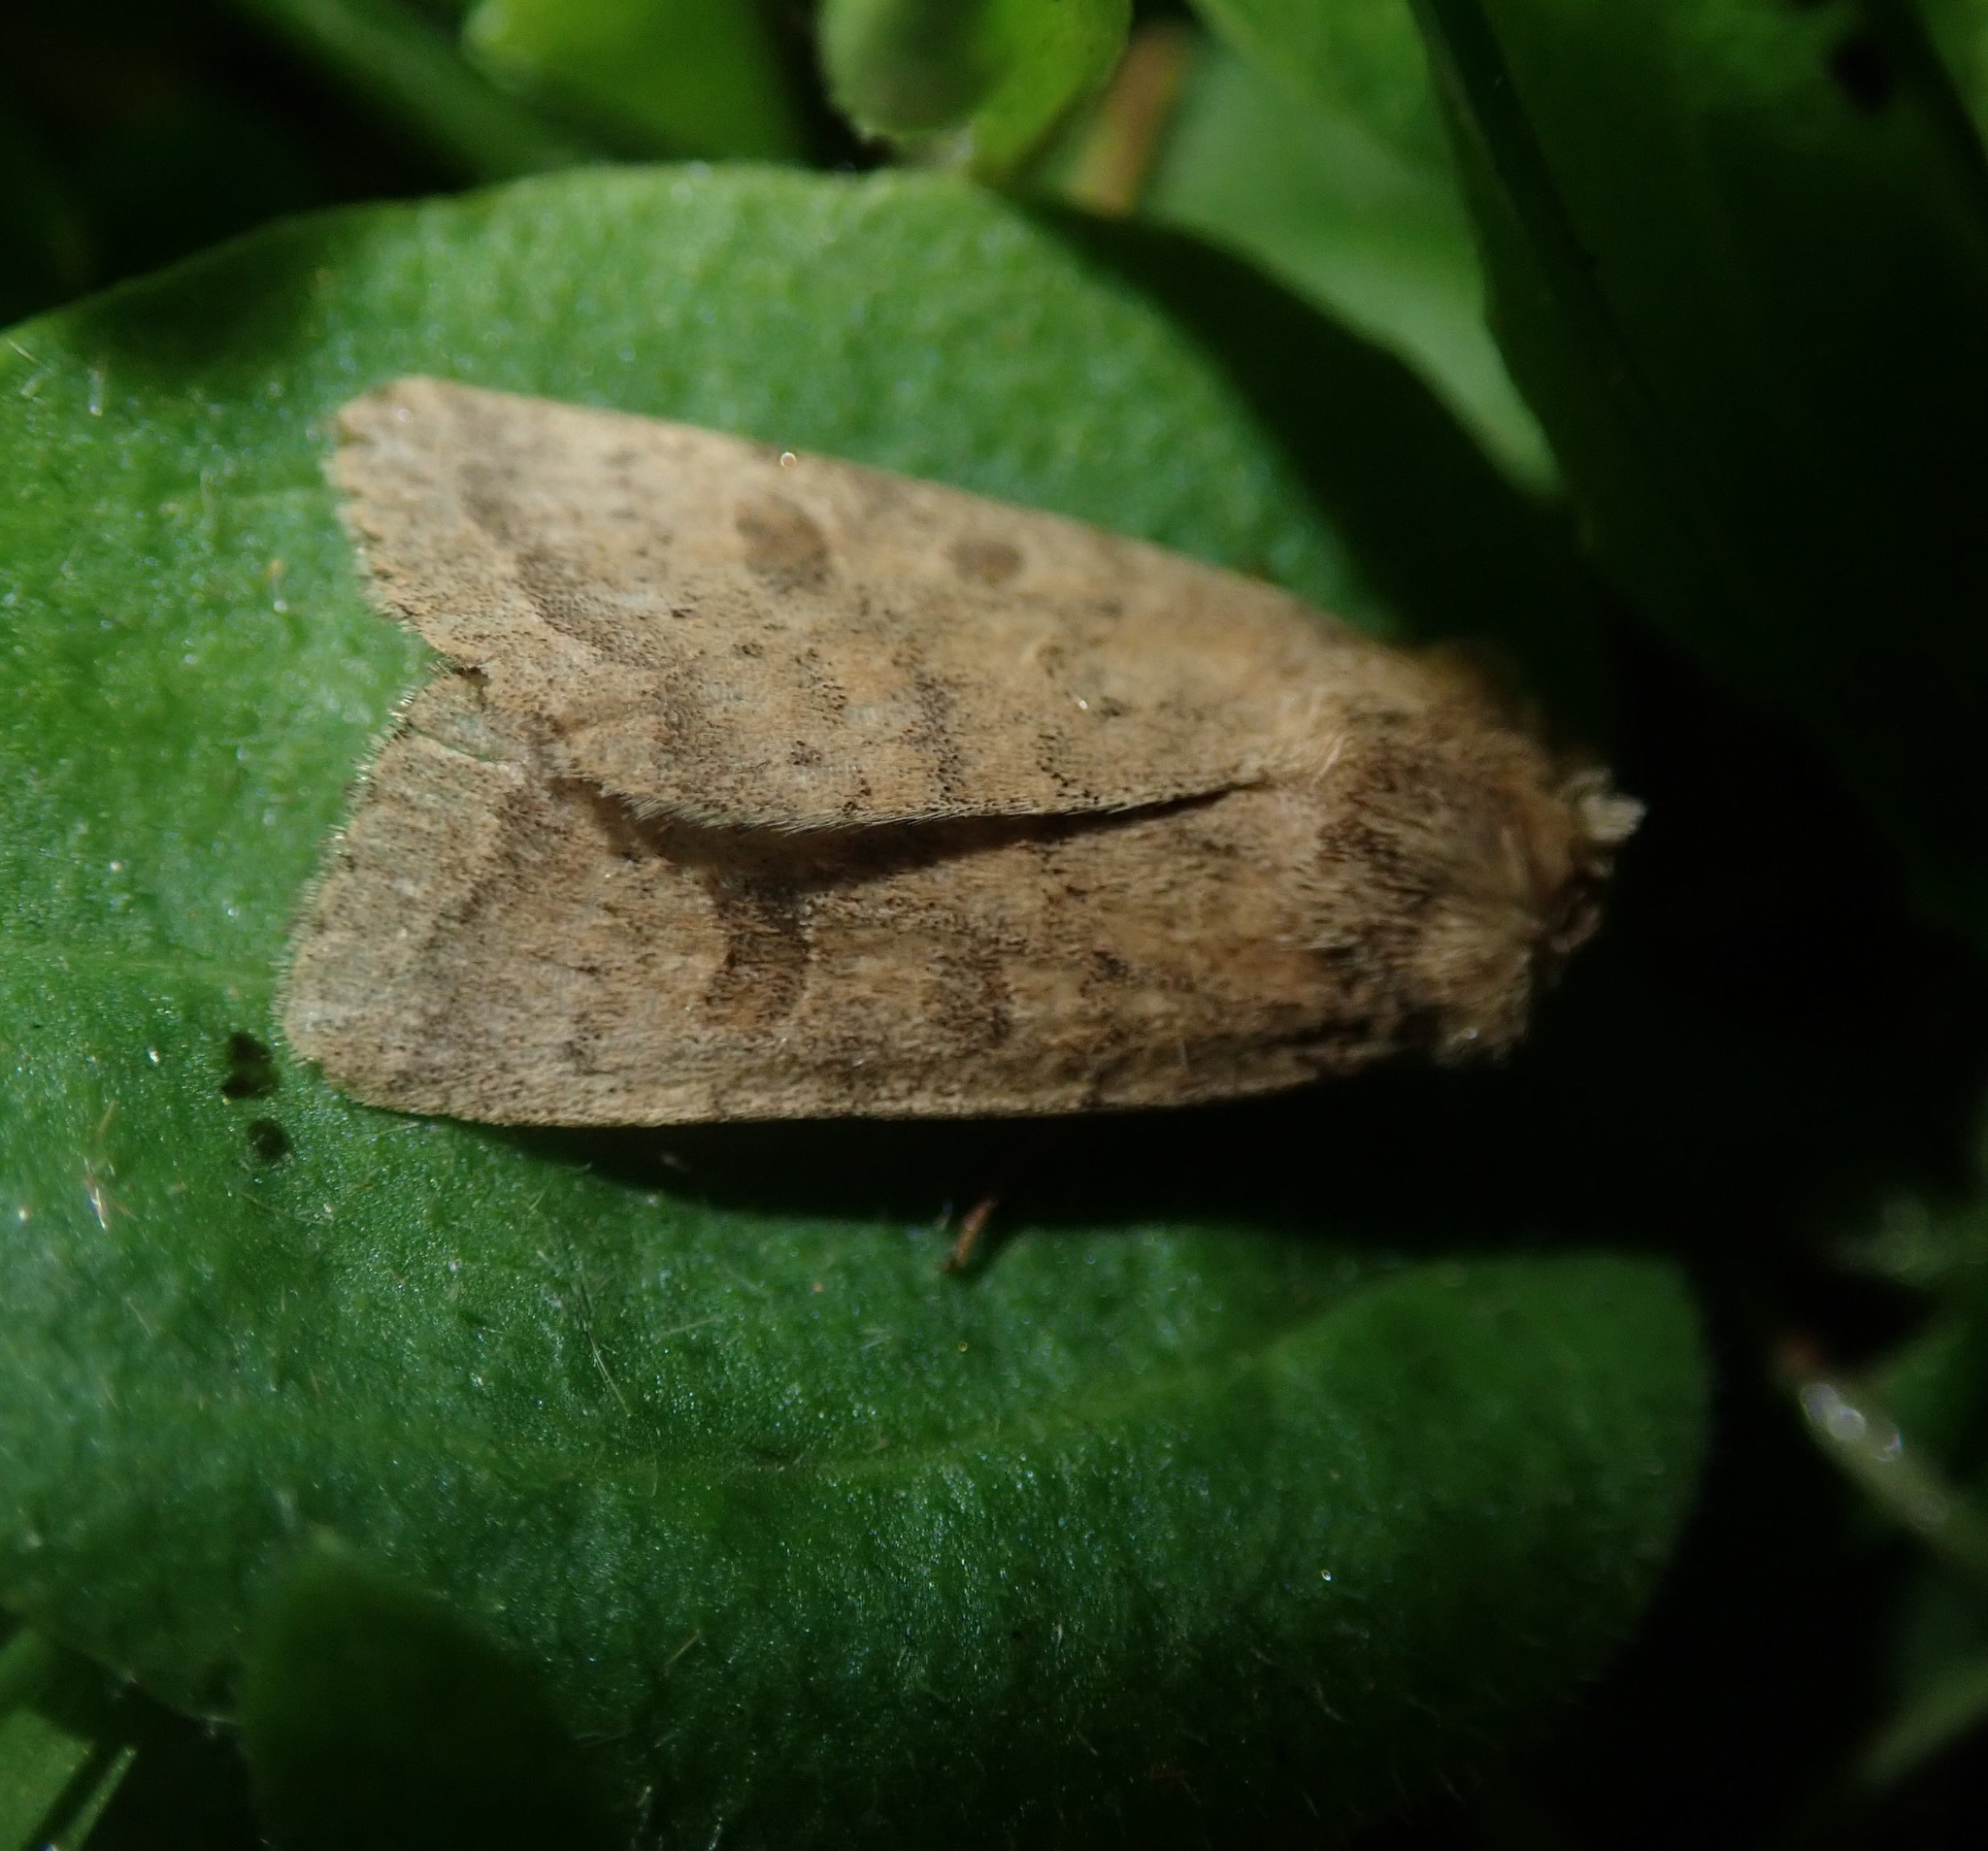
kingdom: Animalia
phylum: Arthropoda
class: Insecta
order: Lepidoptera
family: Noctuidae
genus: Hoplodrina
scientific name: Hoplodrina octogenaria
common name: Uncertain
